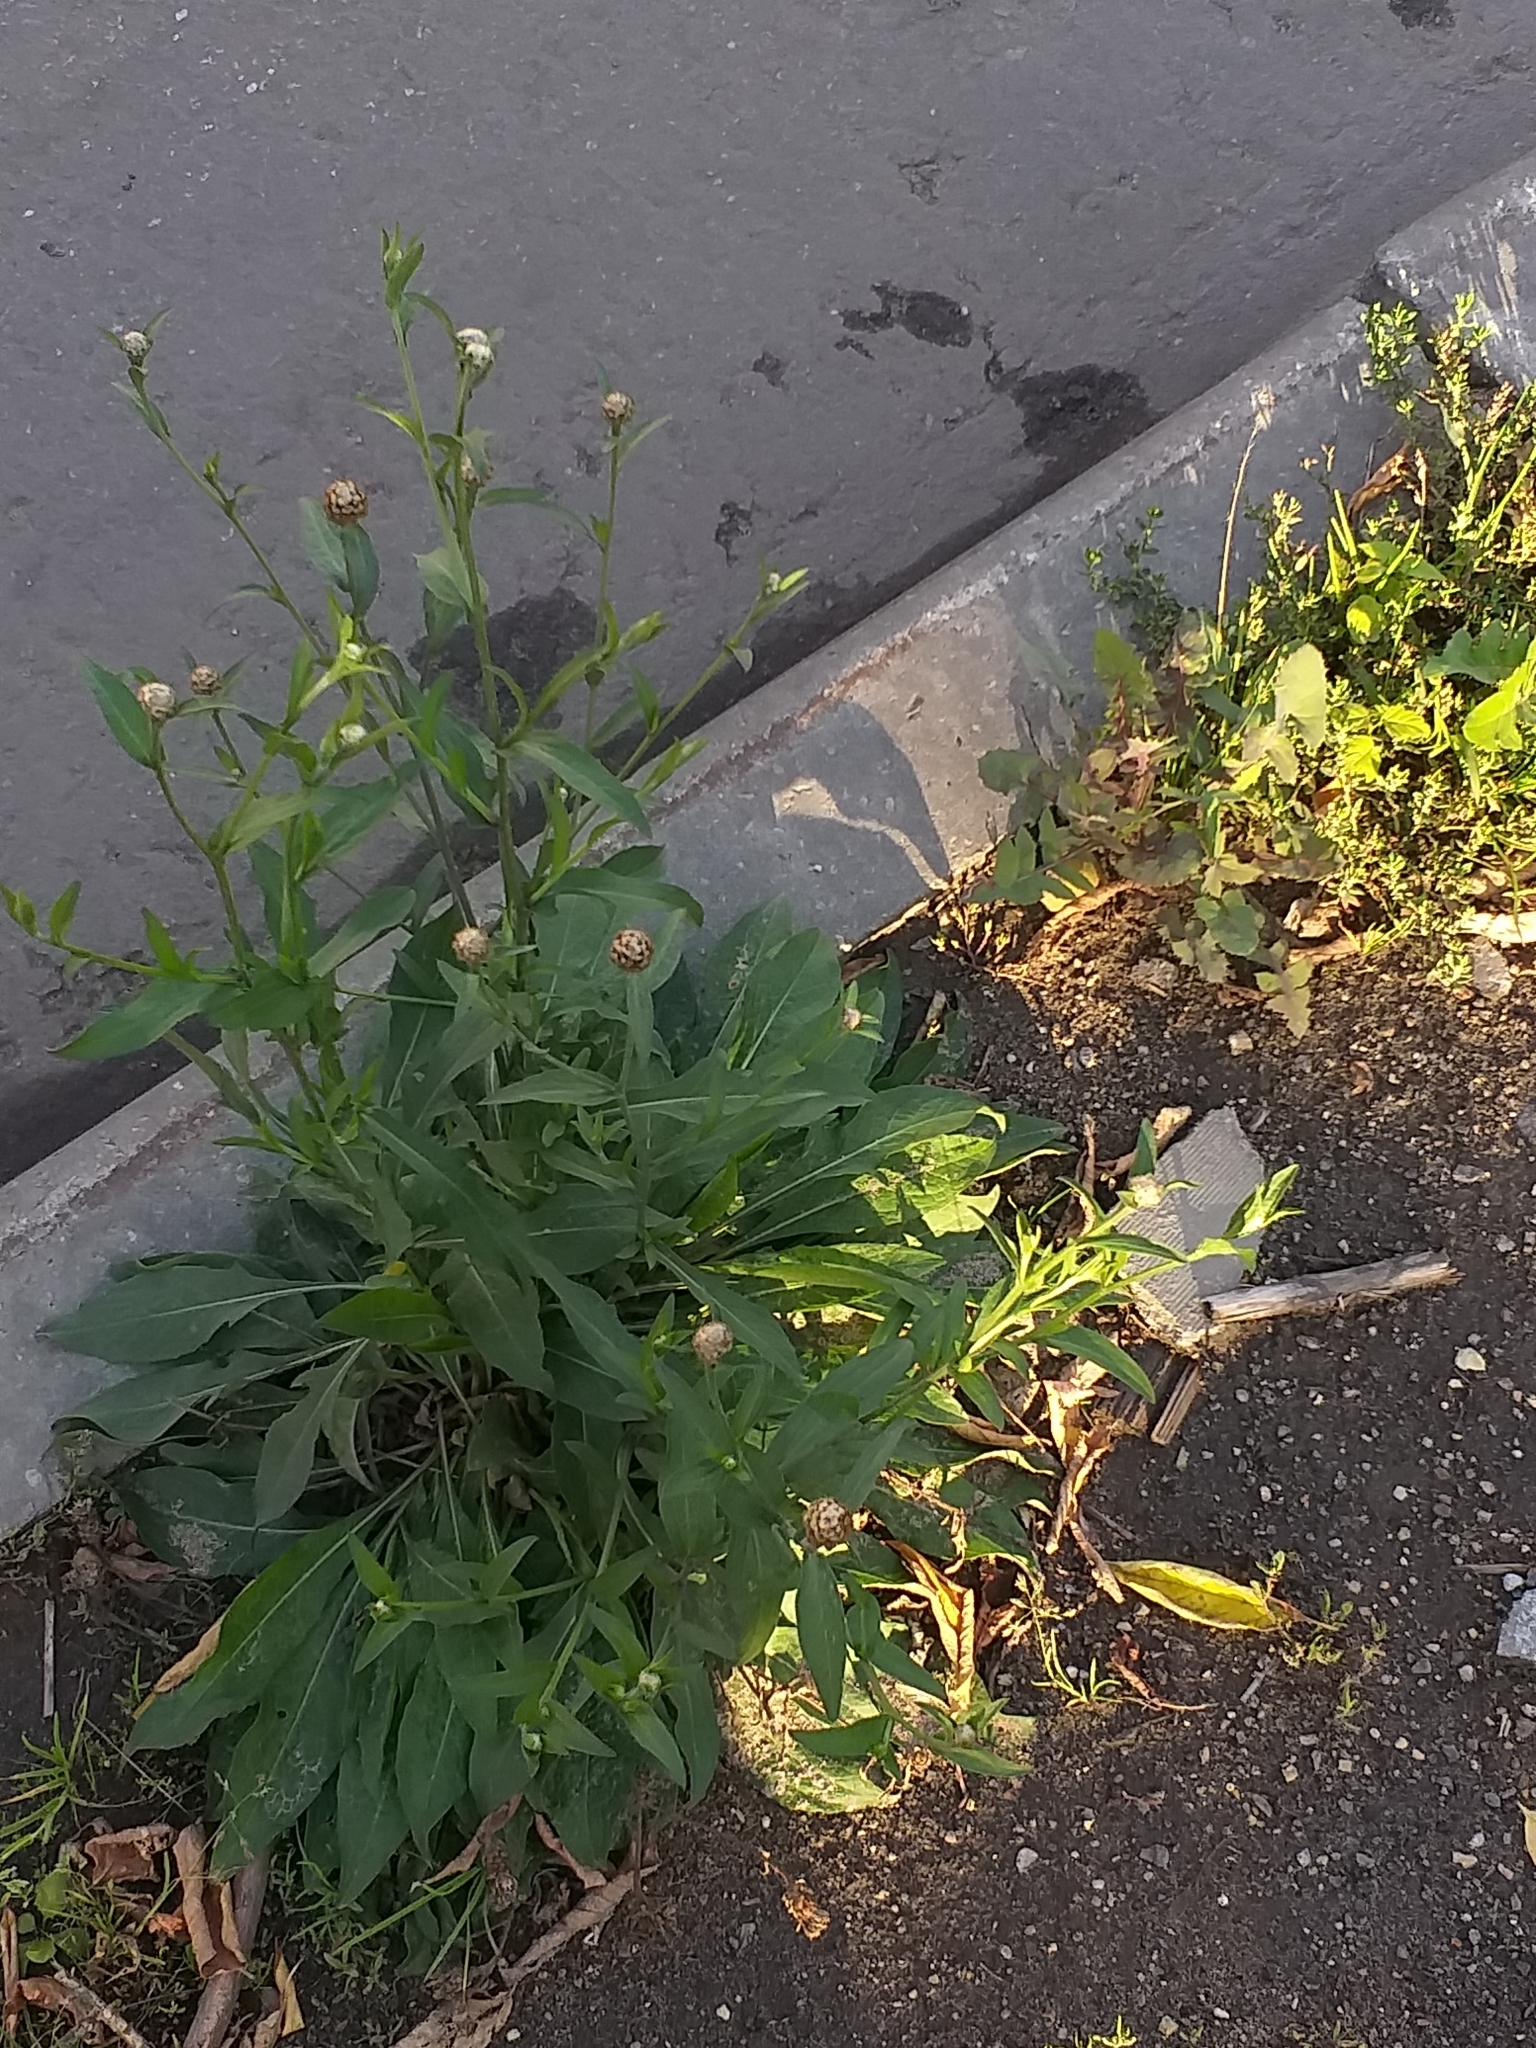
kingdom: Plantae
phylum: Tracheophyta
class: Magnoliopsida
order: Asterales
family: Asteraceae
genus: Centaurea
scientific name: Centaurea jacea
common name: Brown knapweed
